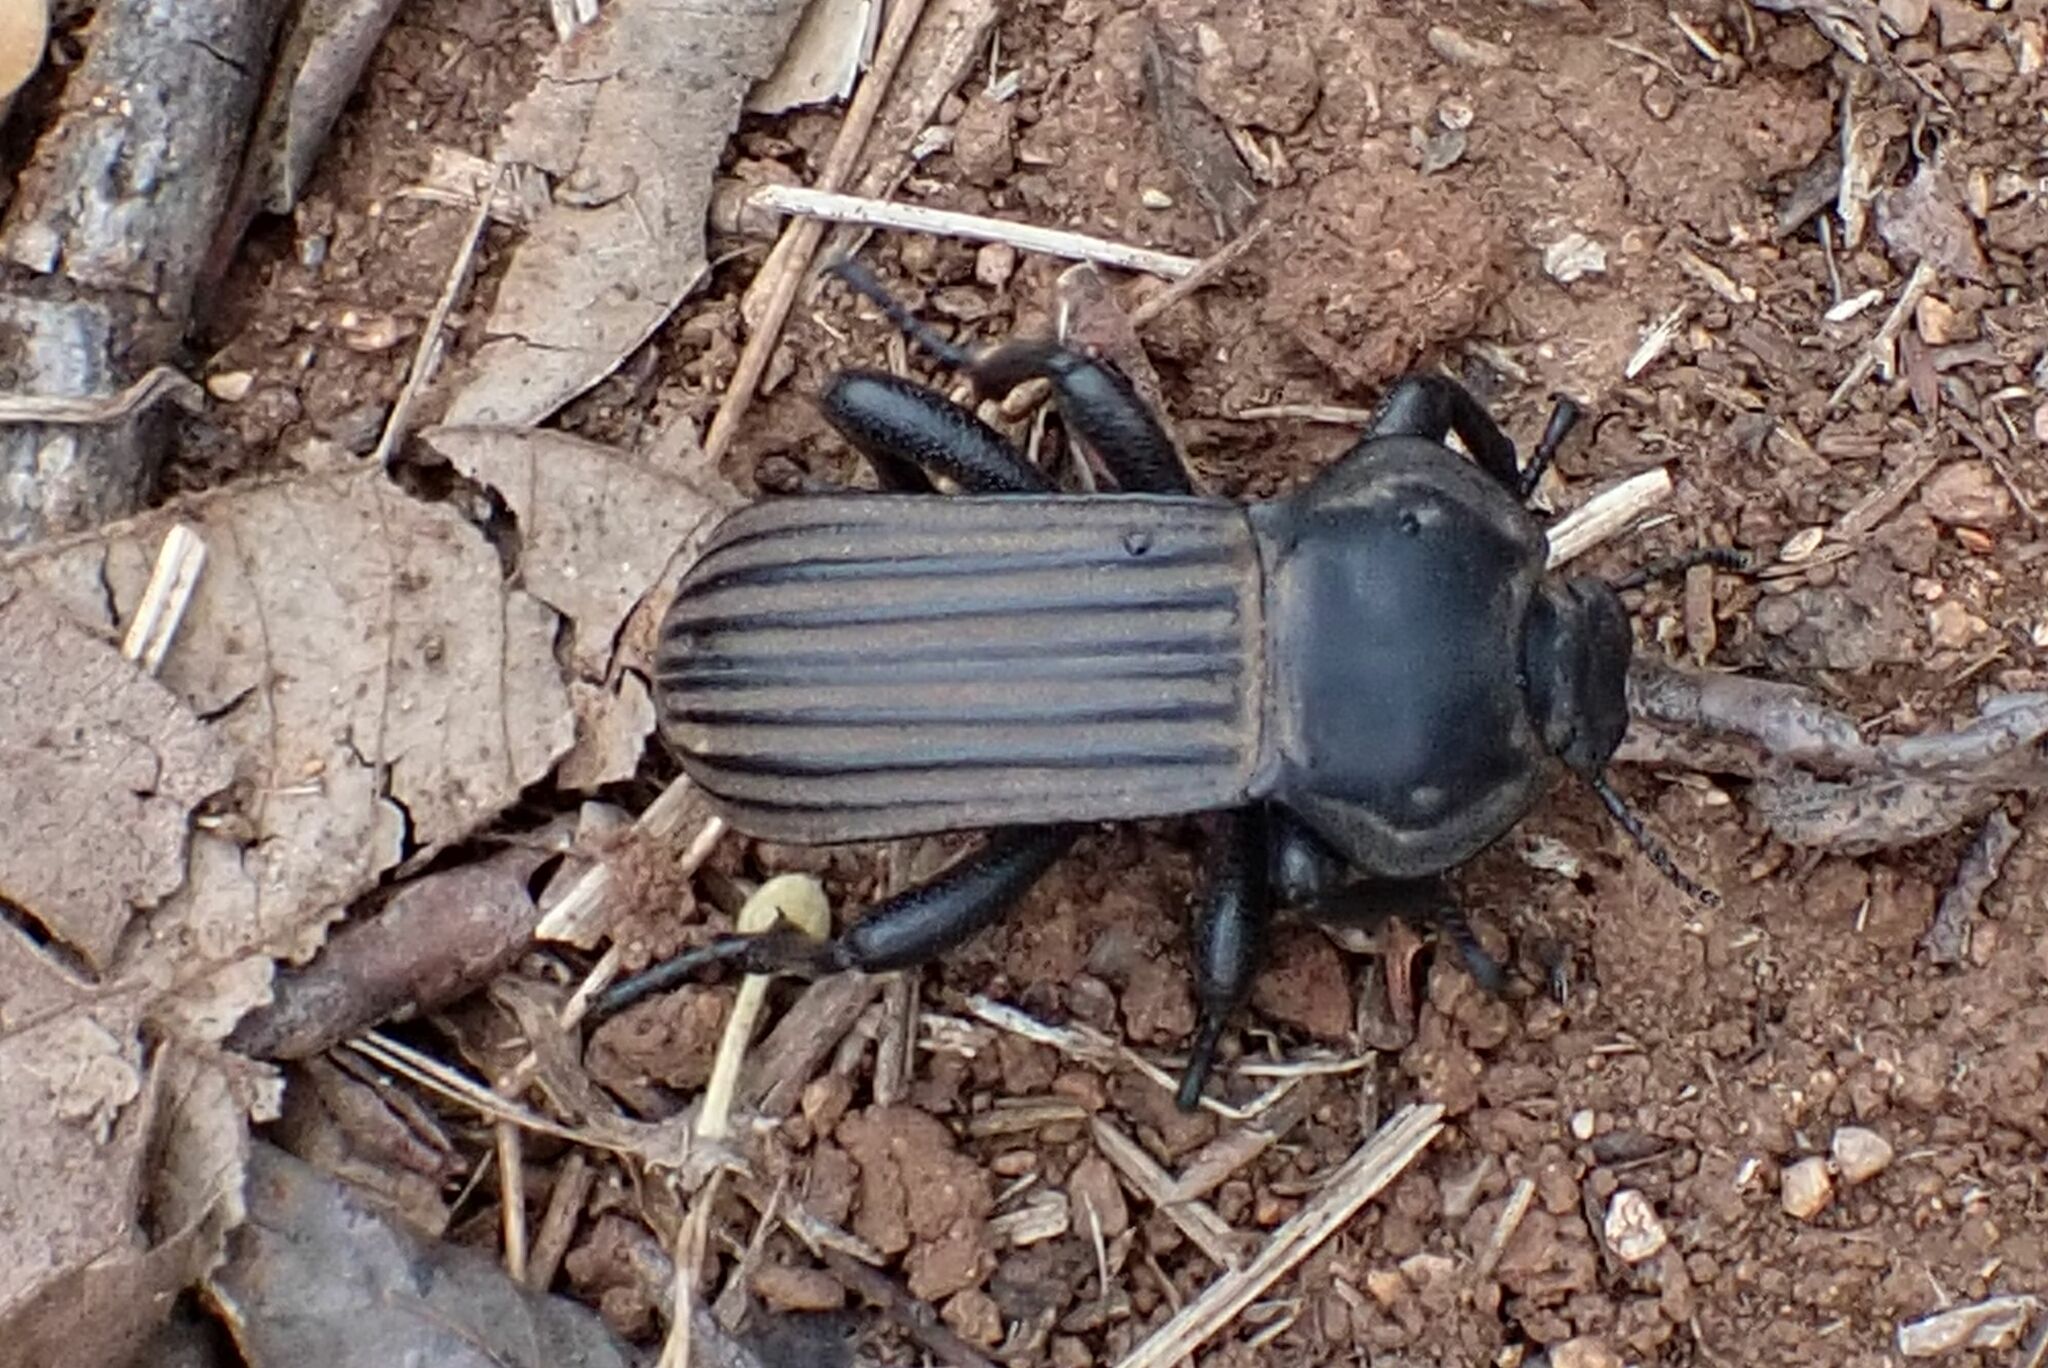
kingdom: Animalia
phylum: Arthropoda
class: Insecta
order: Coleoptera
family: Tenebrionidae
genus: Anomalipus
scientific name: Anomalipus
